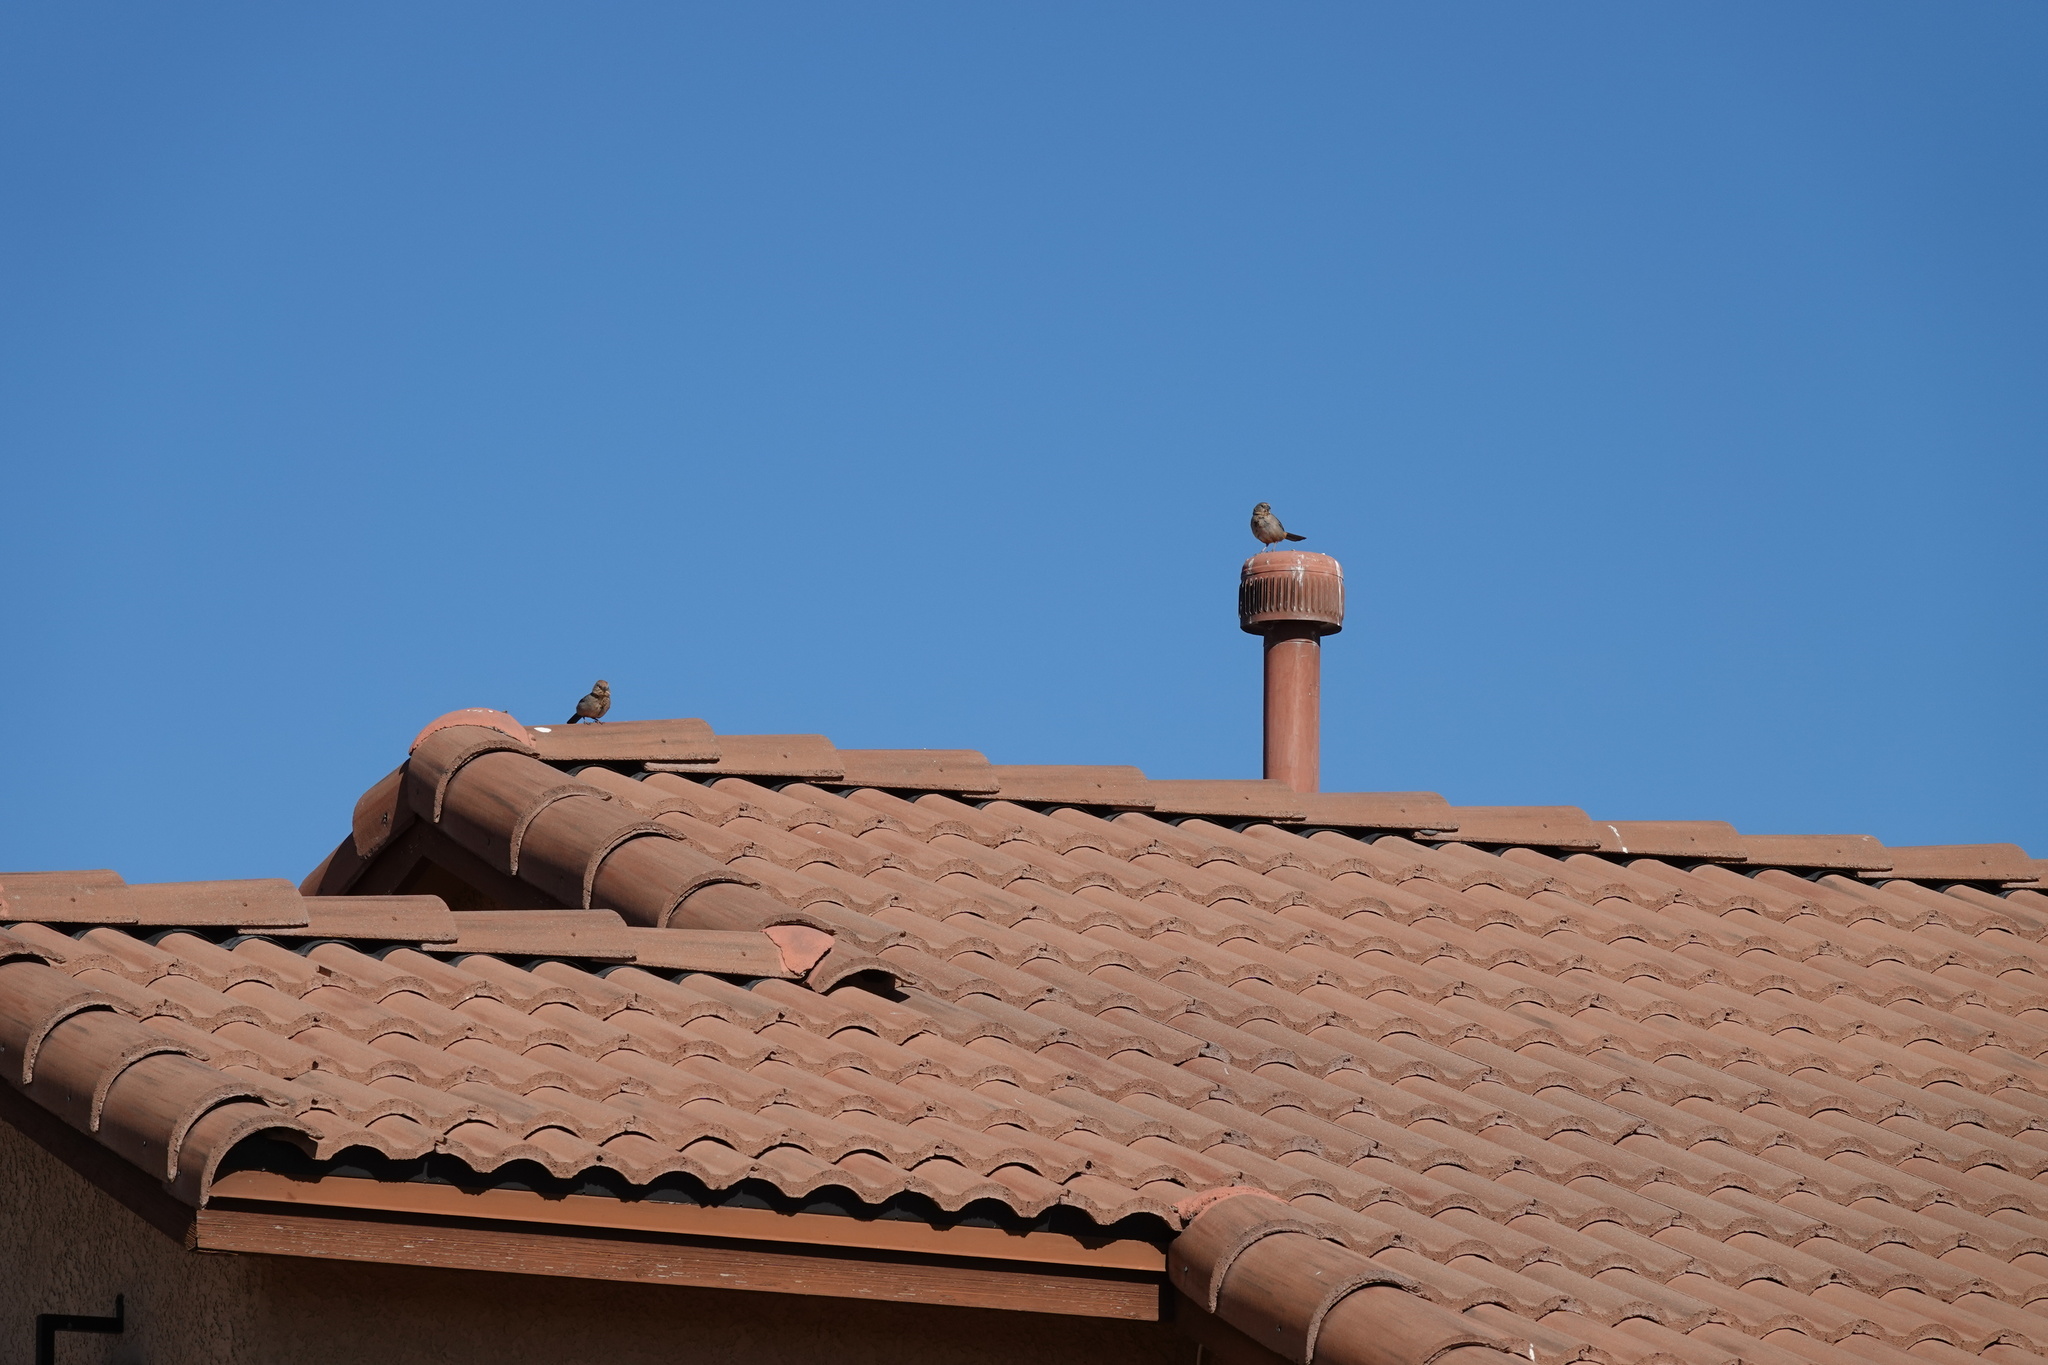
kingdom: Animalia
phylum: Chordata
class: Aves
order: Passeriformes
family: Passerellidae
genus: Melozone
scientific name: Melozone fusca
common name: Canyon towhee
